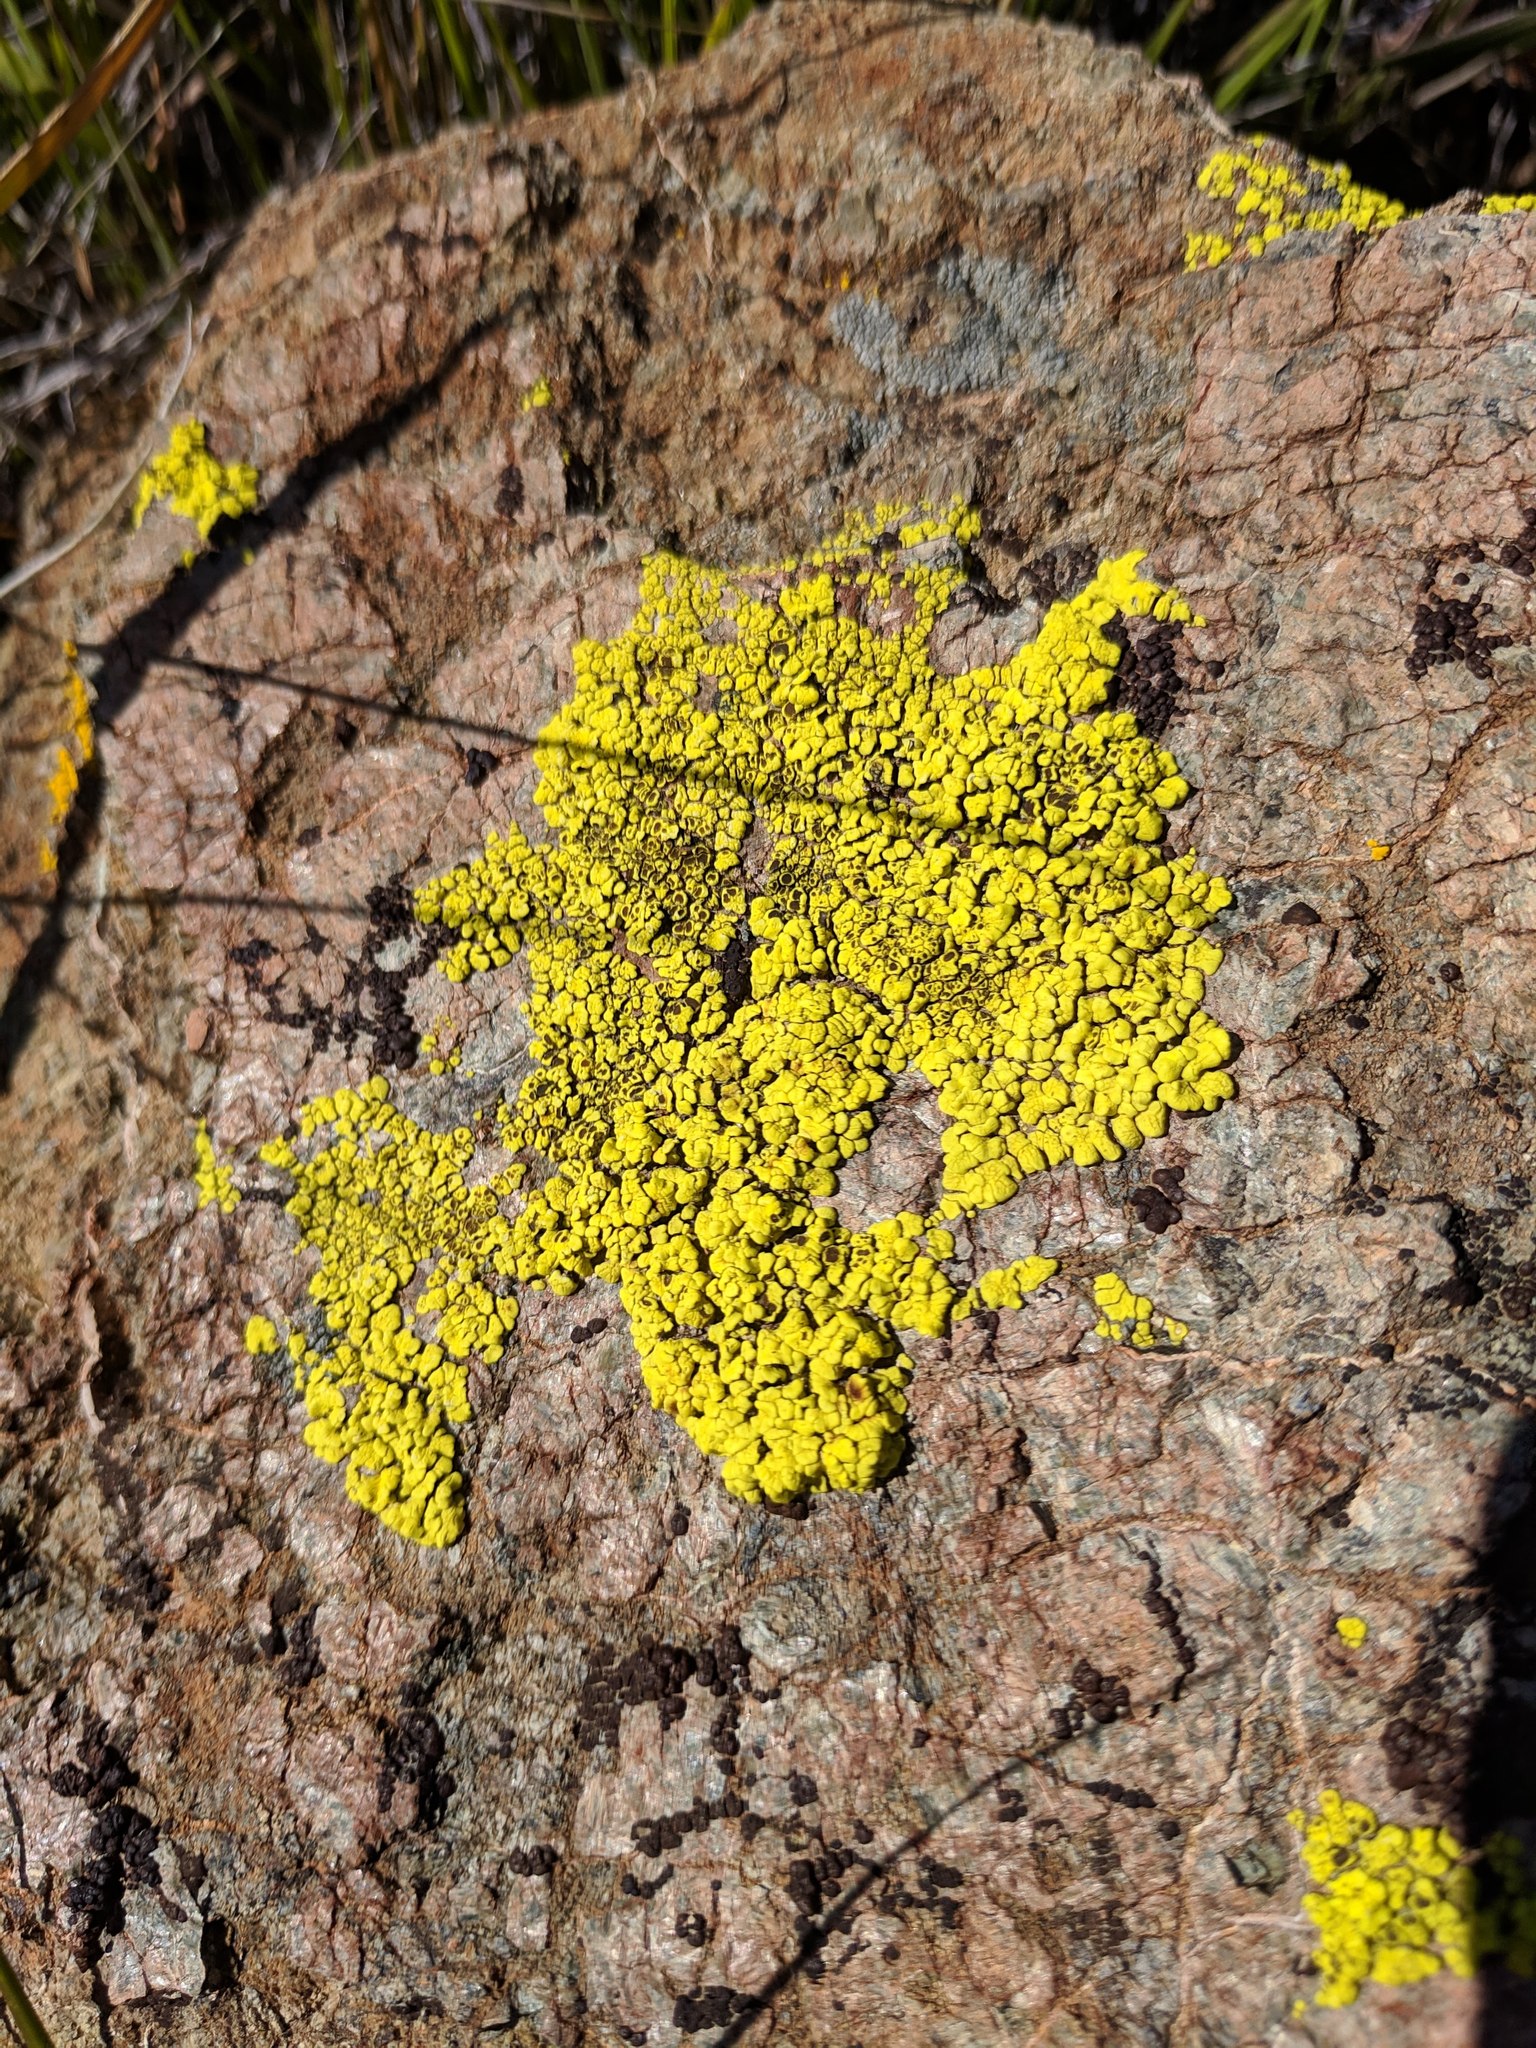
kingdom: Fungi
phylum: Ascomycota
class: Lecanoromycetes
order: Acarosporales
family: Acarosporaceae
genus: Acarospora
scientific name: Acarospora socialis
